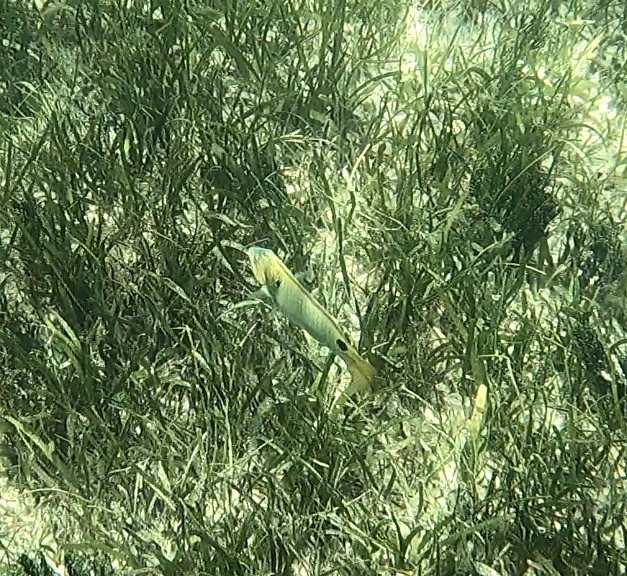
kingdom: Animalia
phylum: Chordata
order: Perciformes
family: Labridae
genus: Halichoeres
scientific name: Halichoeres trimaculatus
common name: Three-spot wrasse
